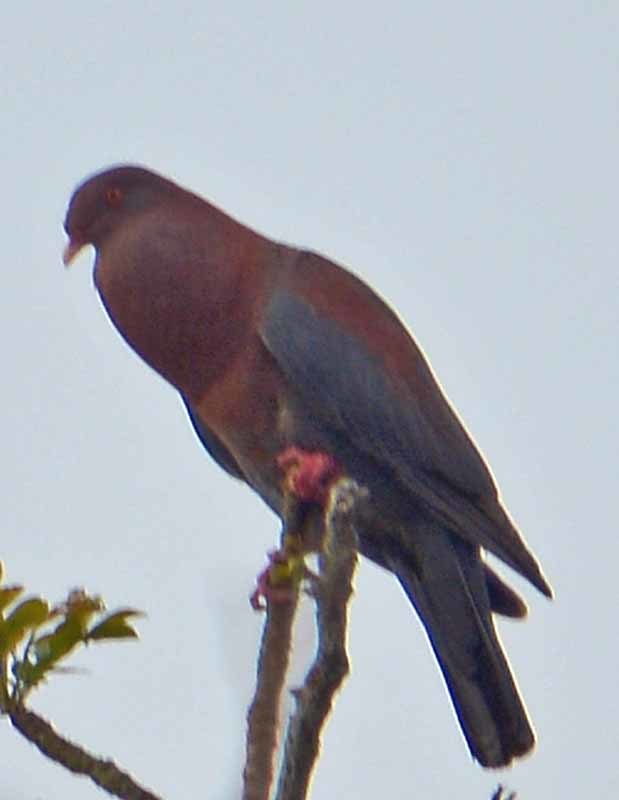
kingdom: Animalia
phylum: Chordata
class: Aves
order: Columbiformes
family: Columbidae
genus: Patagioenas
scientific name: Patagioenas flavirostris
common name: Red-billed pigeon
